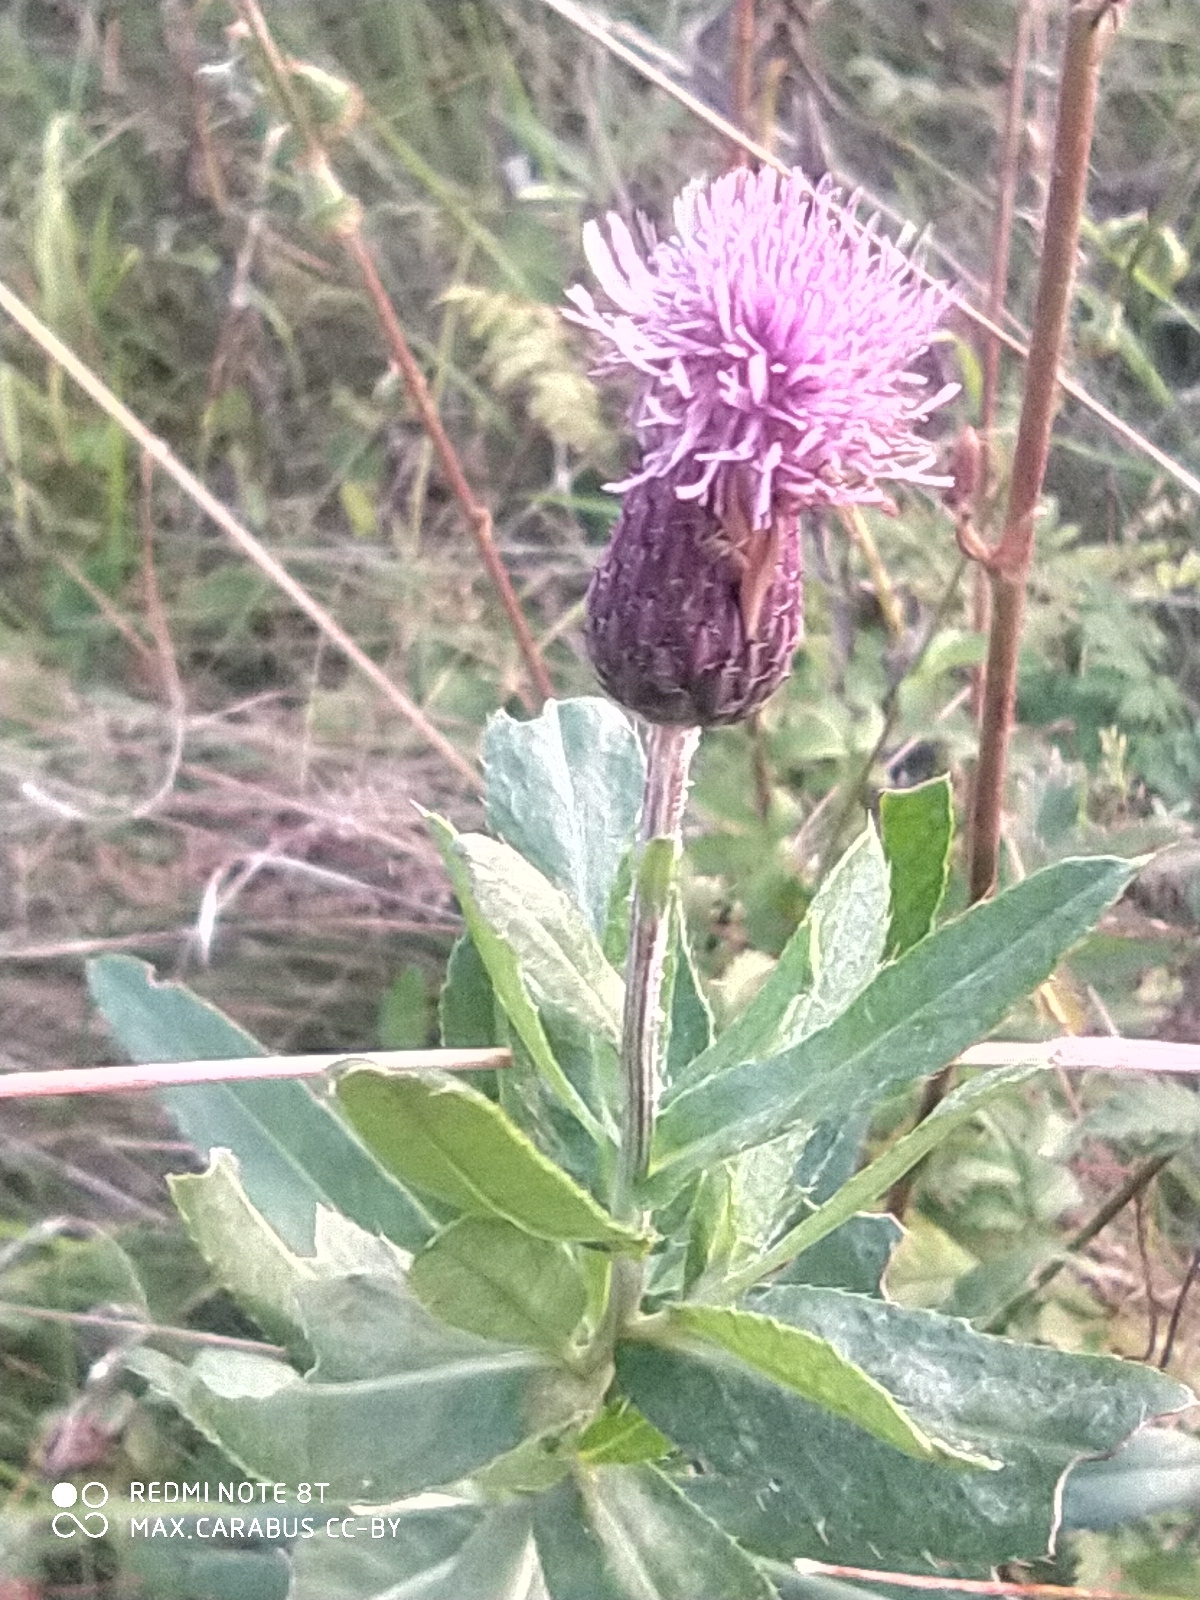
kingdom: Plantae
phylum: Tracheophyta
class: Magnoliopsida
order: Asterales
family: Asteraceae
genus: Cirsium
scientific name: Cirsium arvense
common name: Creeping thistle
